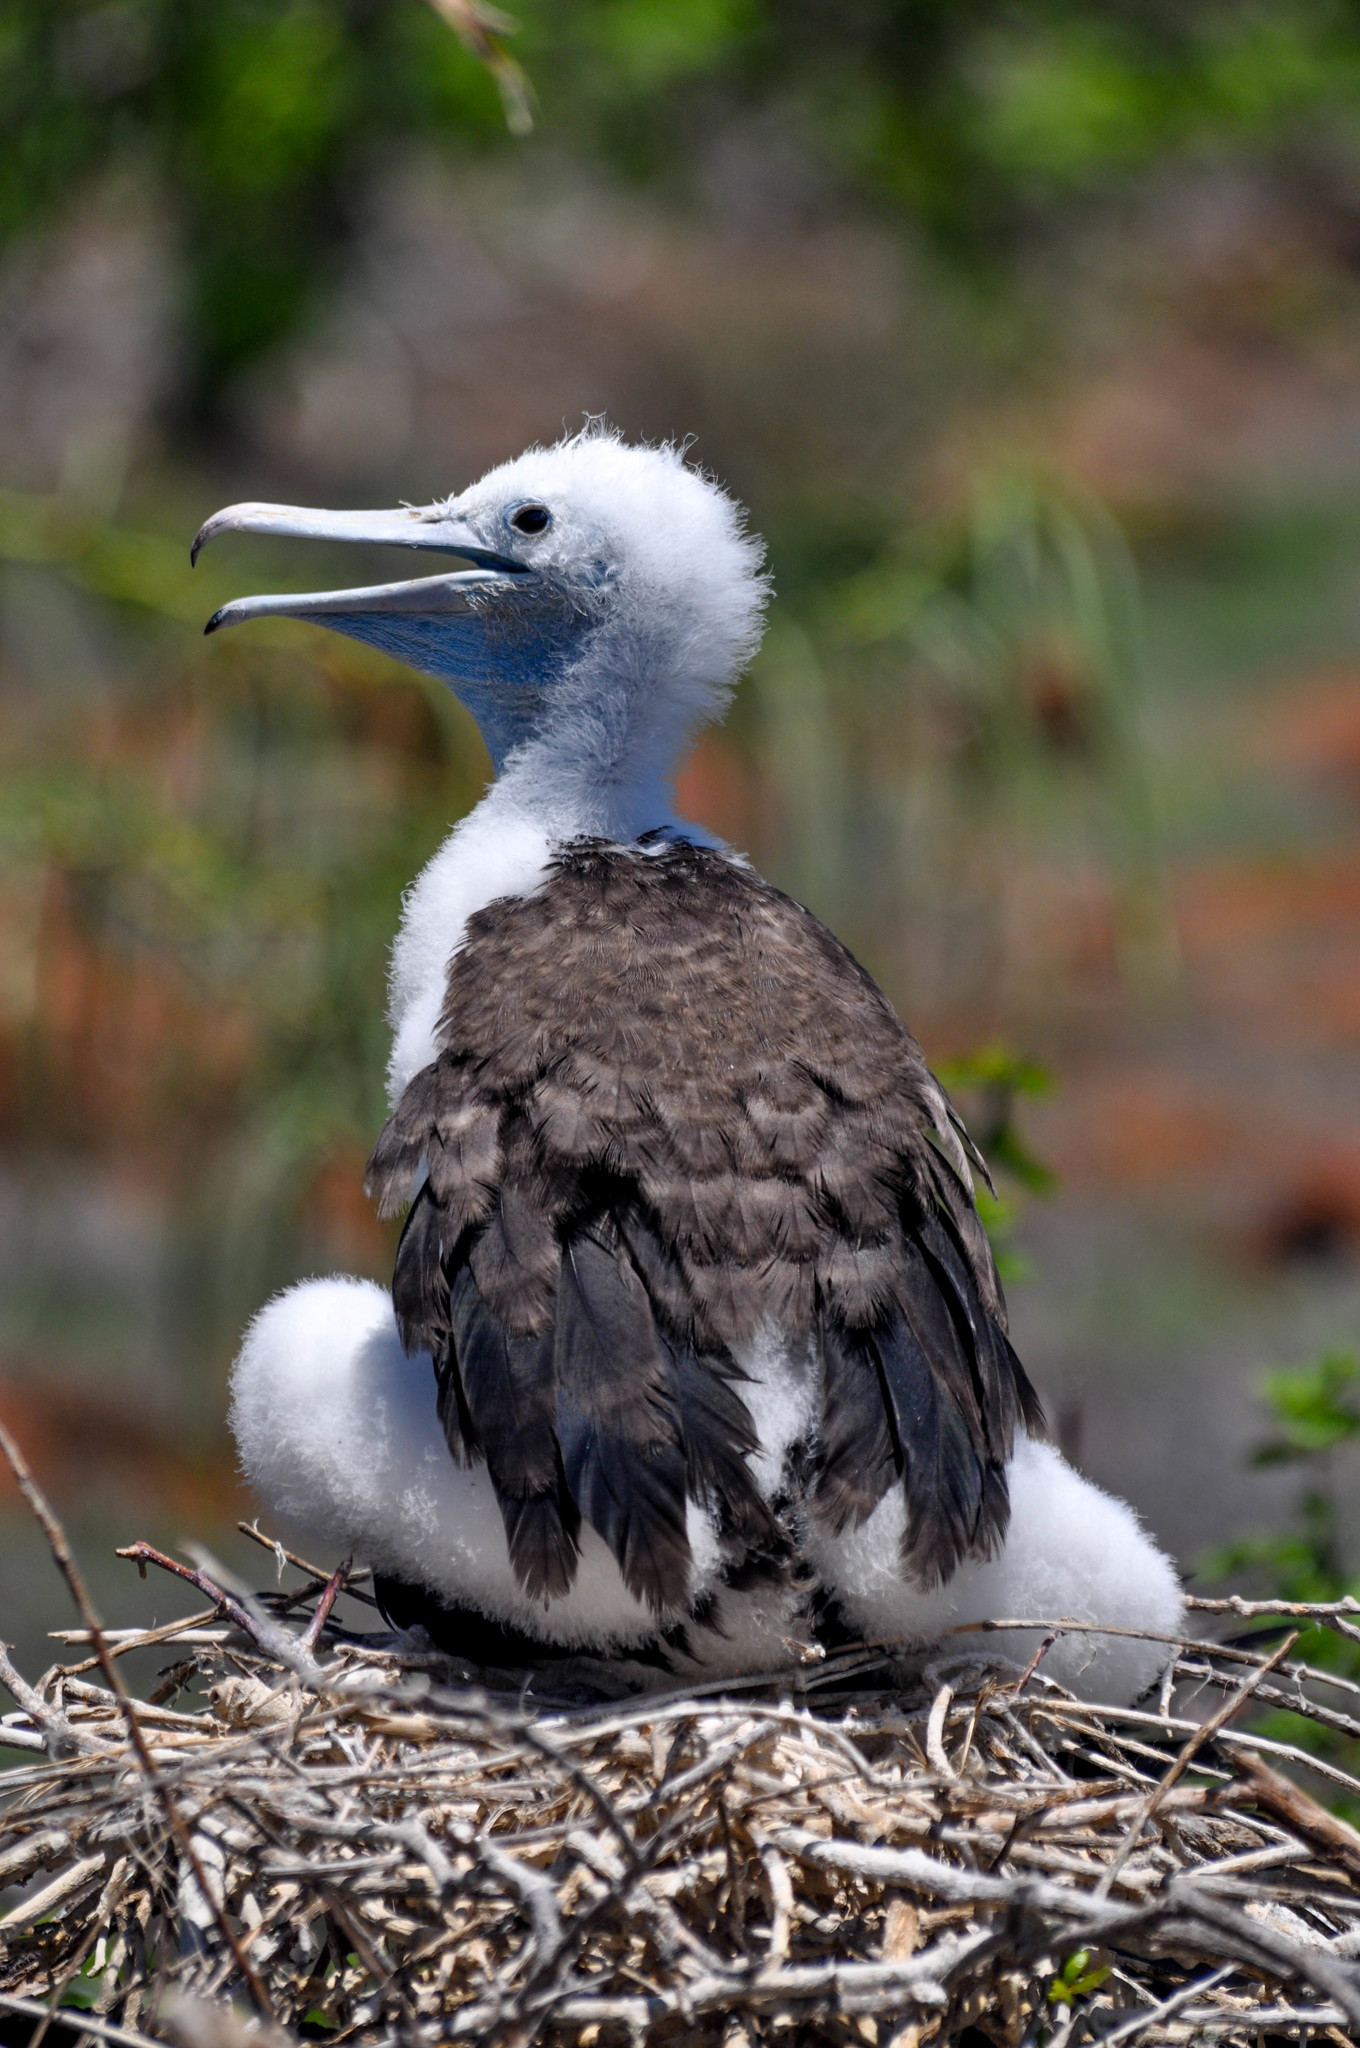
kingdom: Animalia
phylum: Chordata
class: Aves
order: Suliformes
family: Fregatidae
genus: Fregata
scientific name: Fregata magnificens
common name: Magnificent frigatebird
